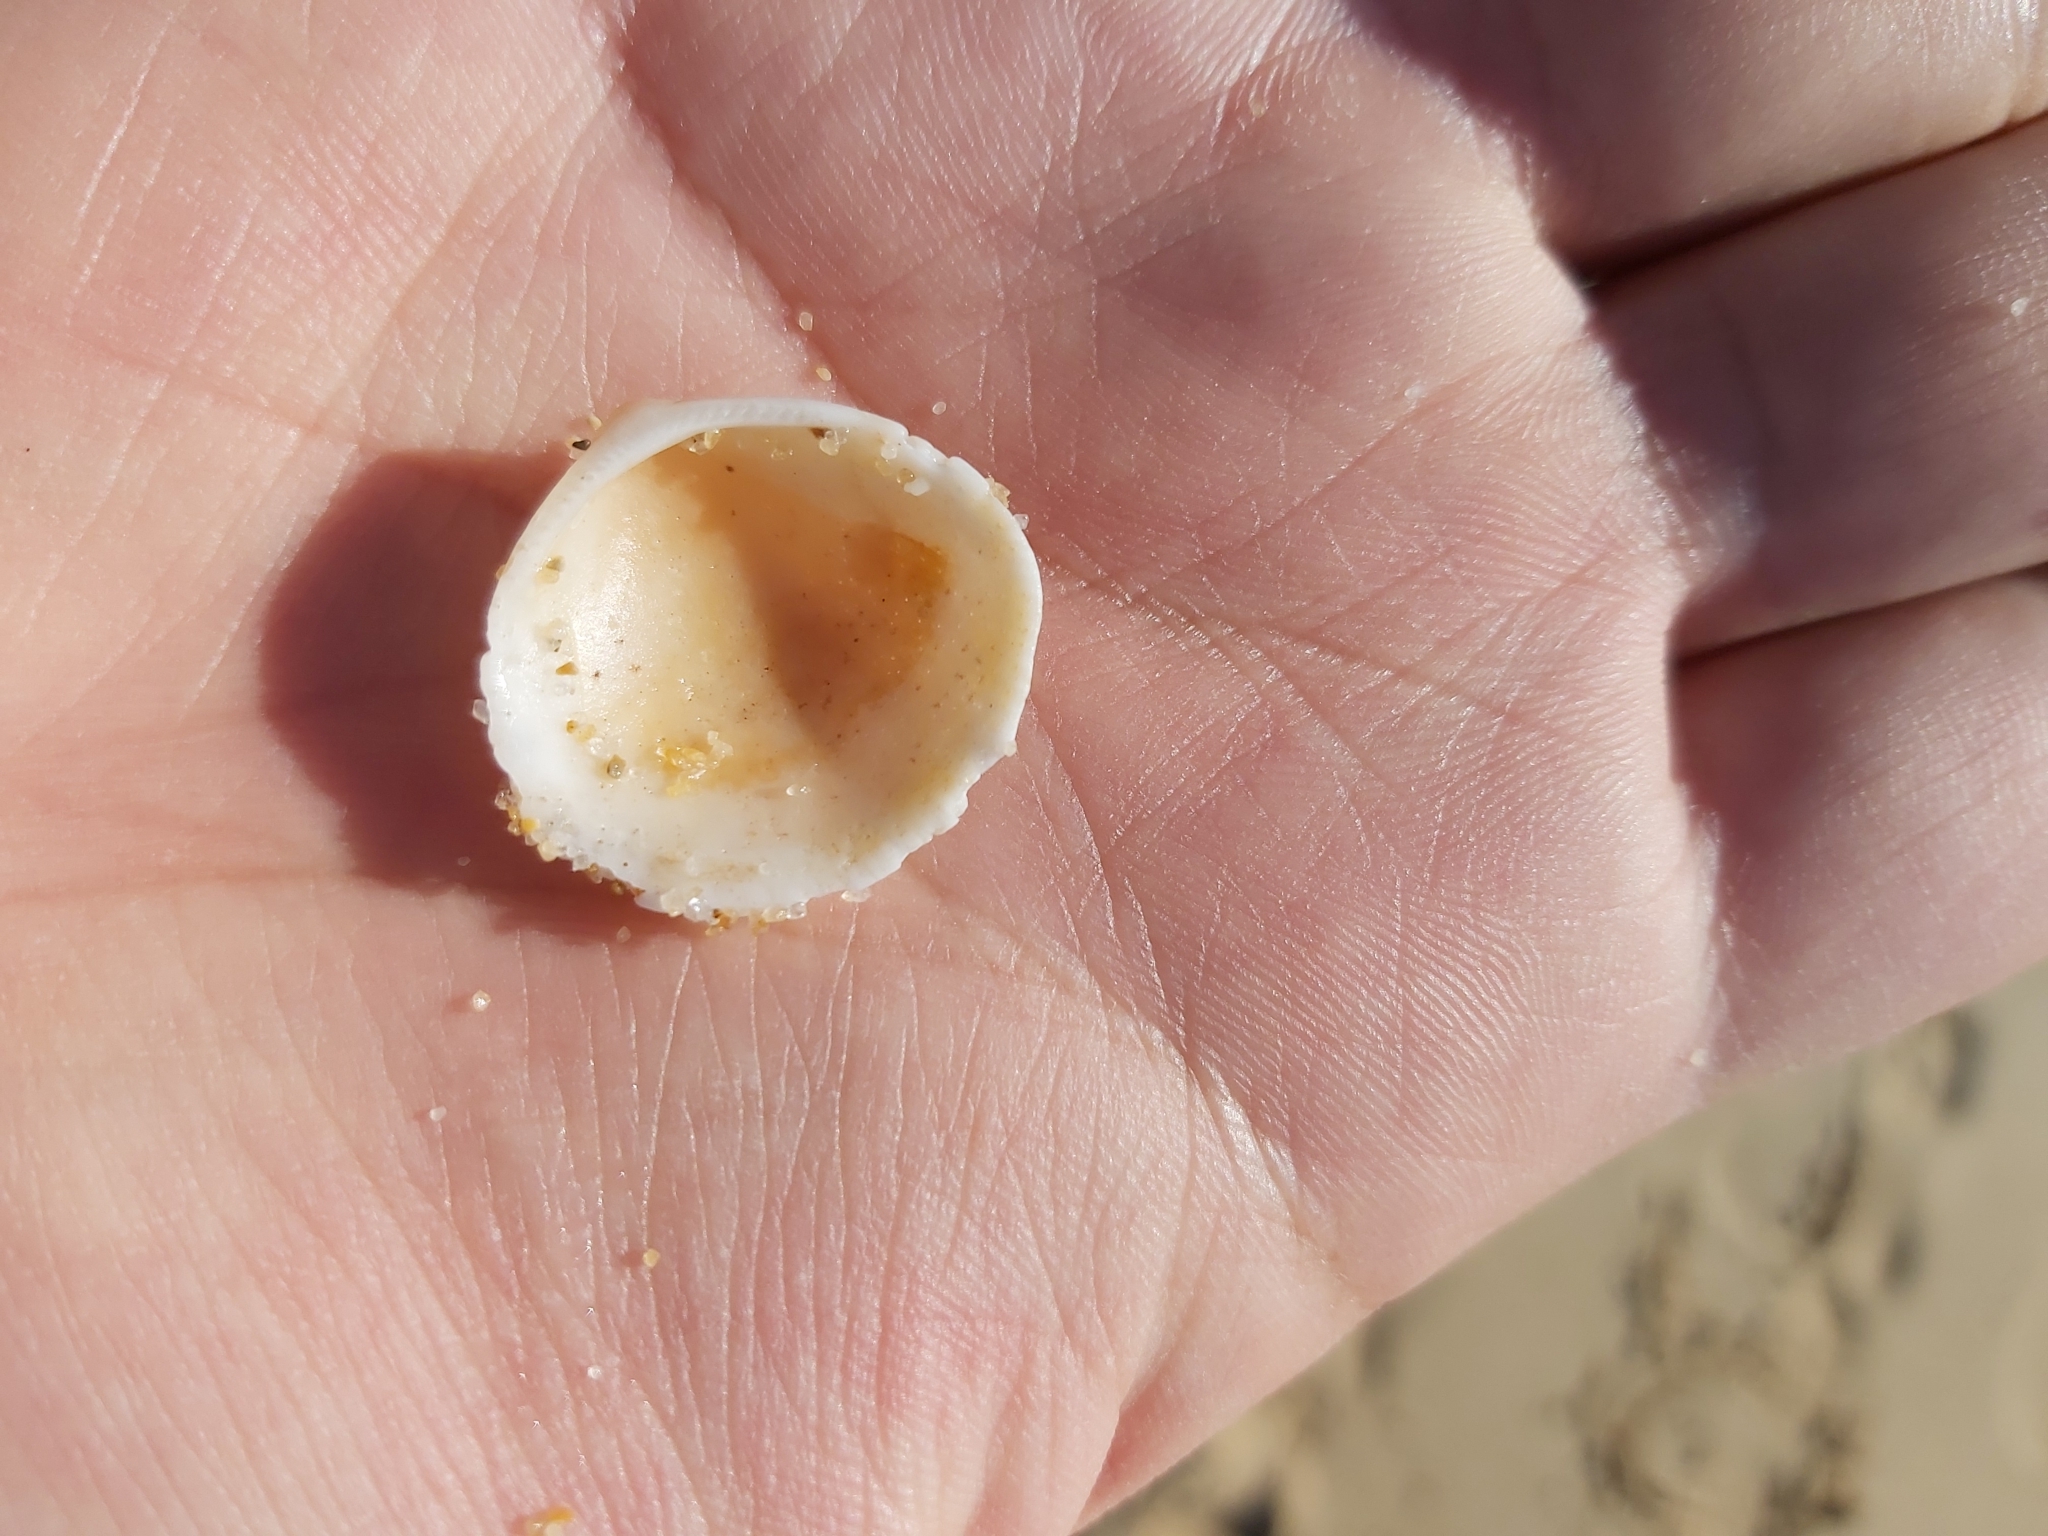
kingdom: Animalia
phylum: Mollusca
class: Bivalvia
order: Arcida
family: Glycymerididae
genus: Glycymeris
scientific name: Glycymeris grayana
